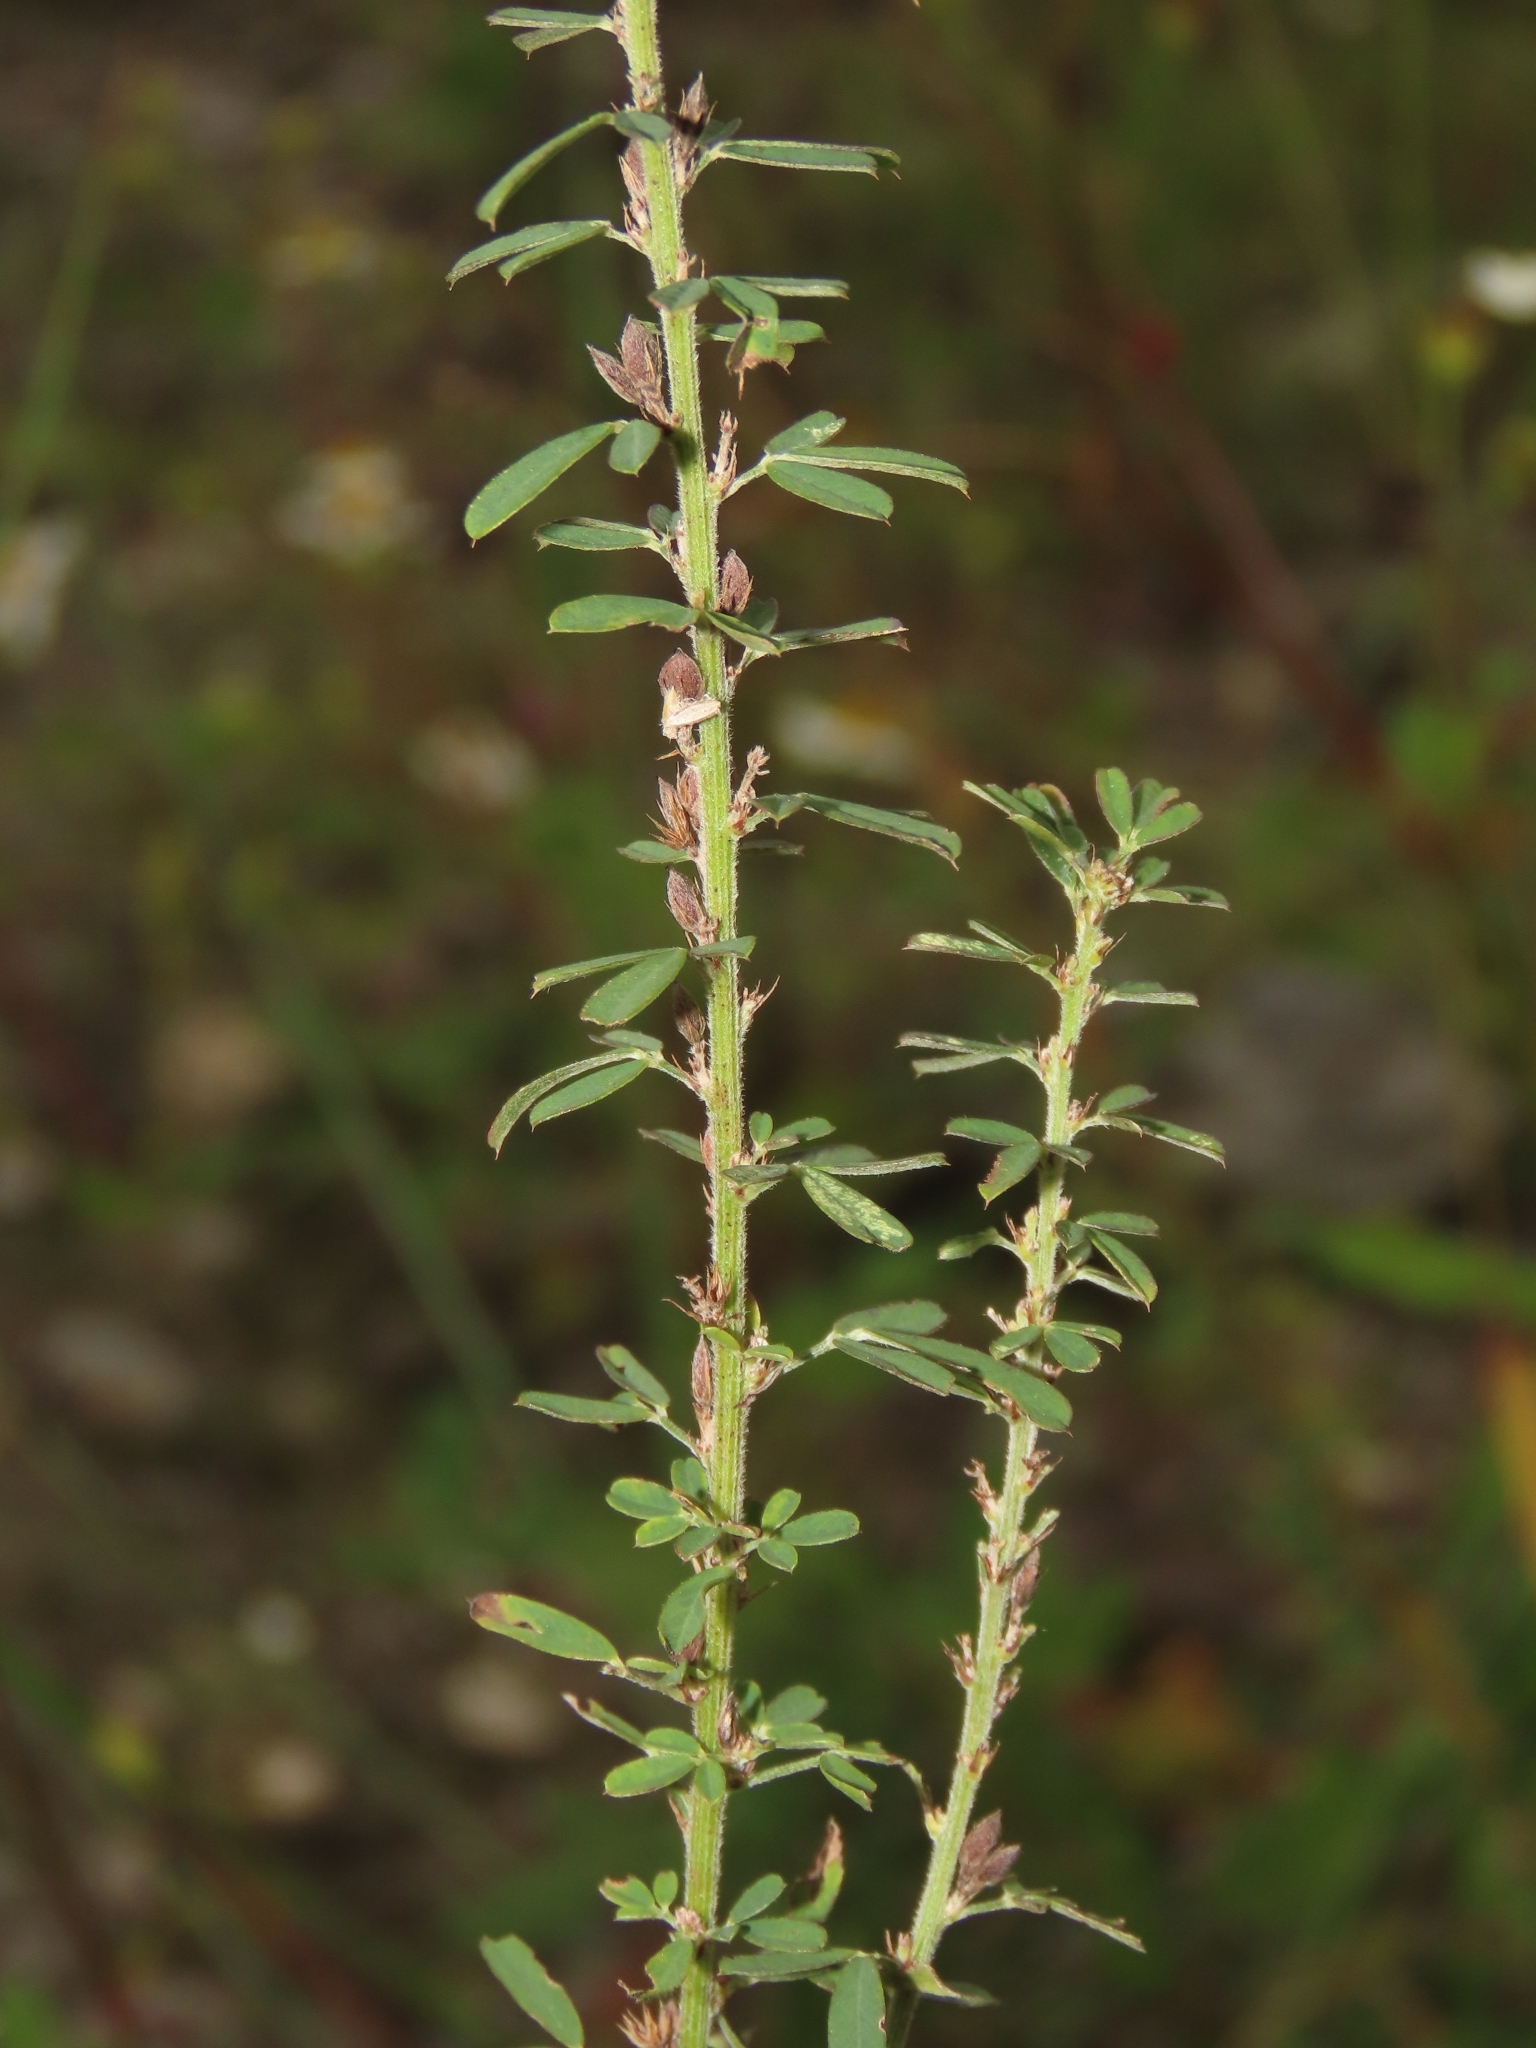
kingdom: Plantae
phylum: Tracheophyta
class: Magnoliopsida
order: Fabales
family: Fabaceae
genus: Lespedeza
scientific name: Lespedeza cuneata
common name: Chinese bush-clover
